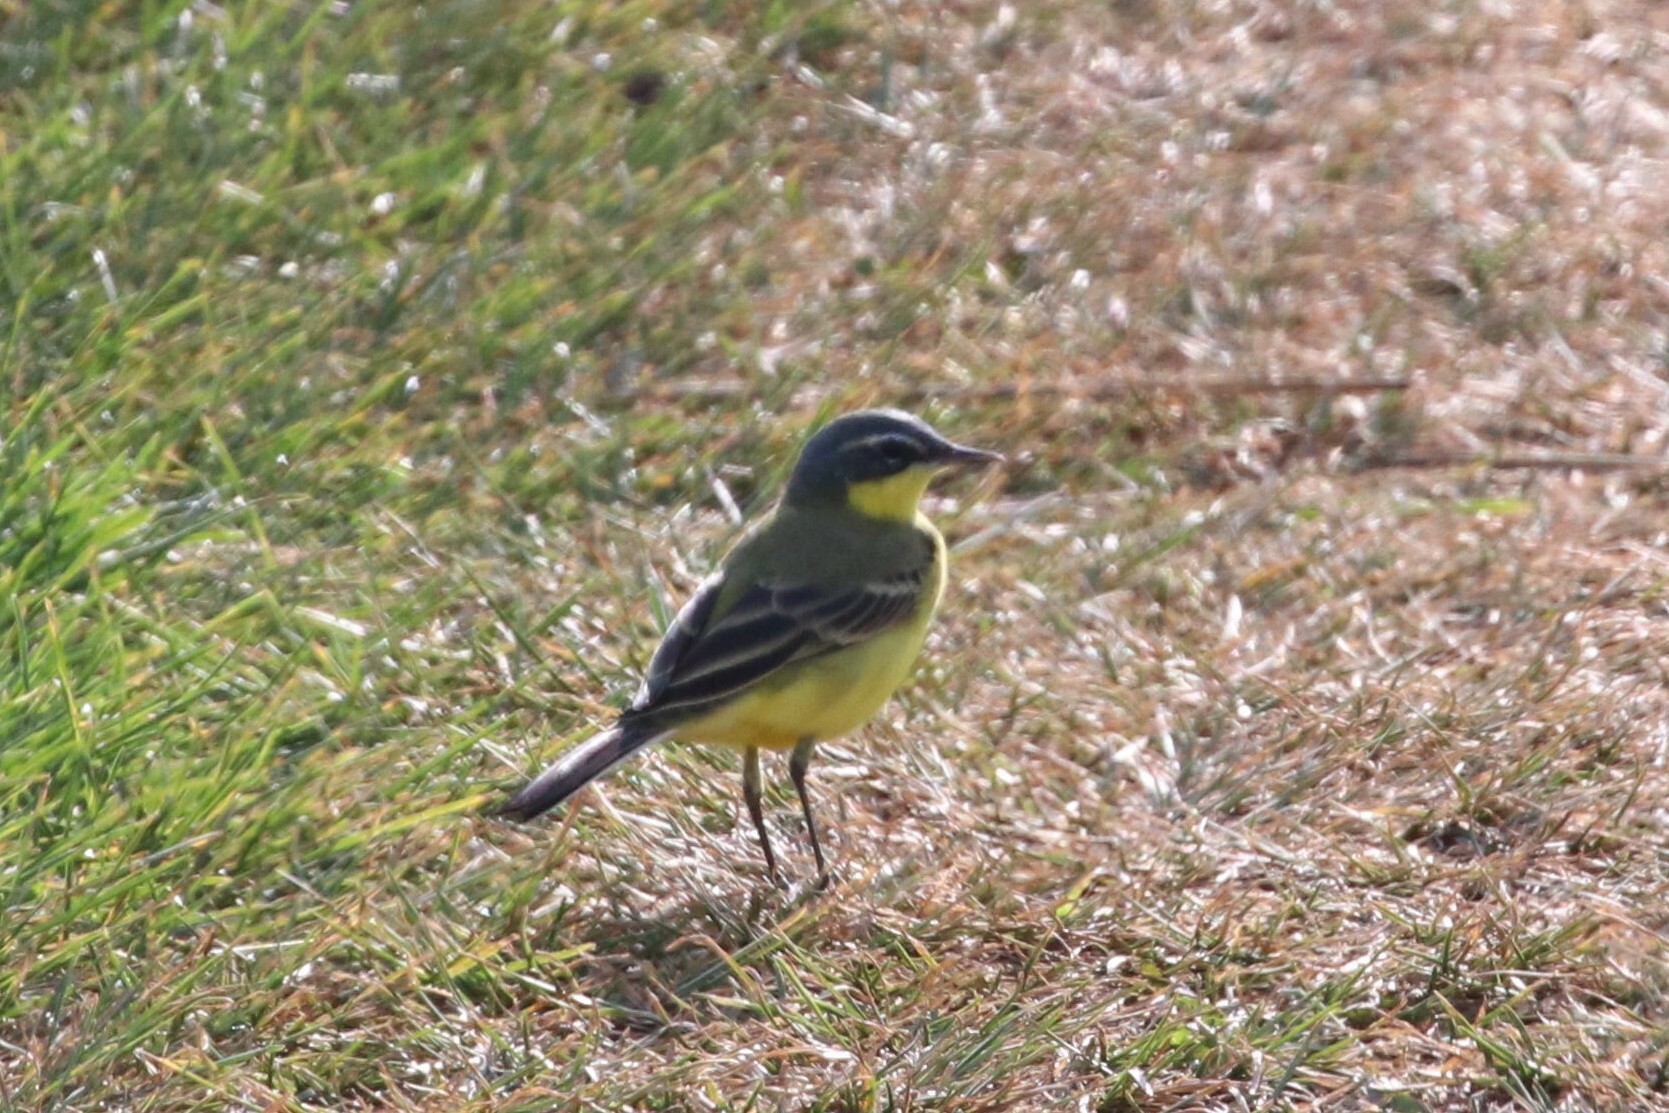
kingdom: Animalia
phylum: Chordata
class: Aves
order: Passeriformes
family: Motacillidae
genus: Motacilla
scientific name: Motacilla flava
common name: Western yellow wagtail
